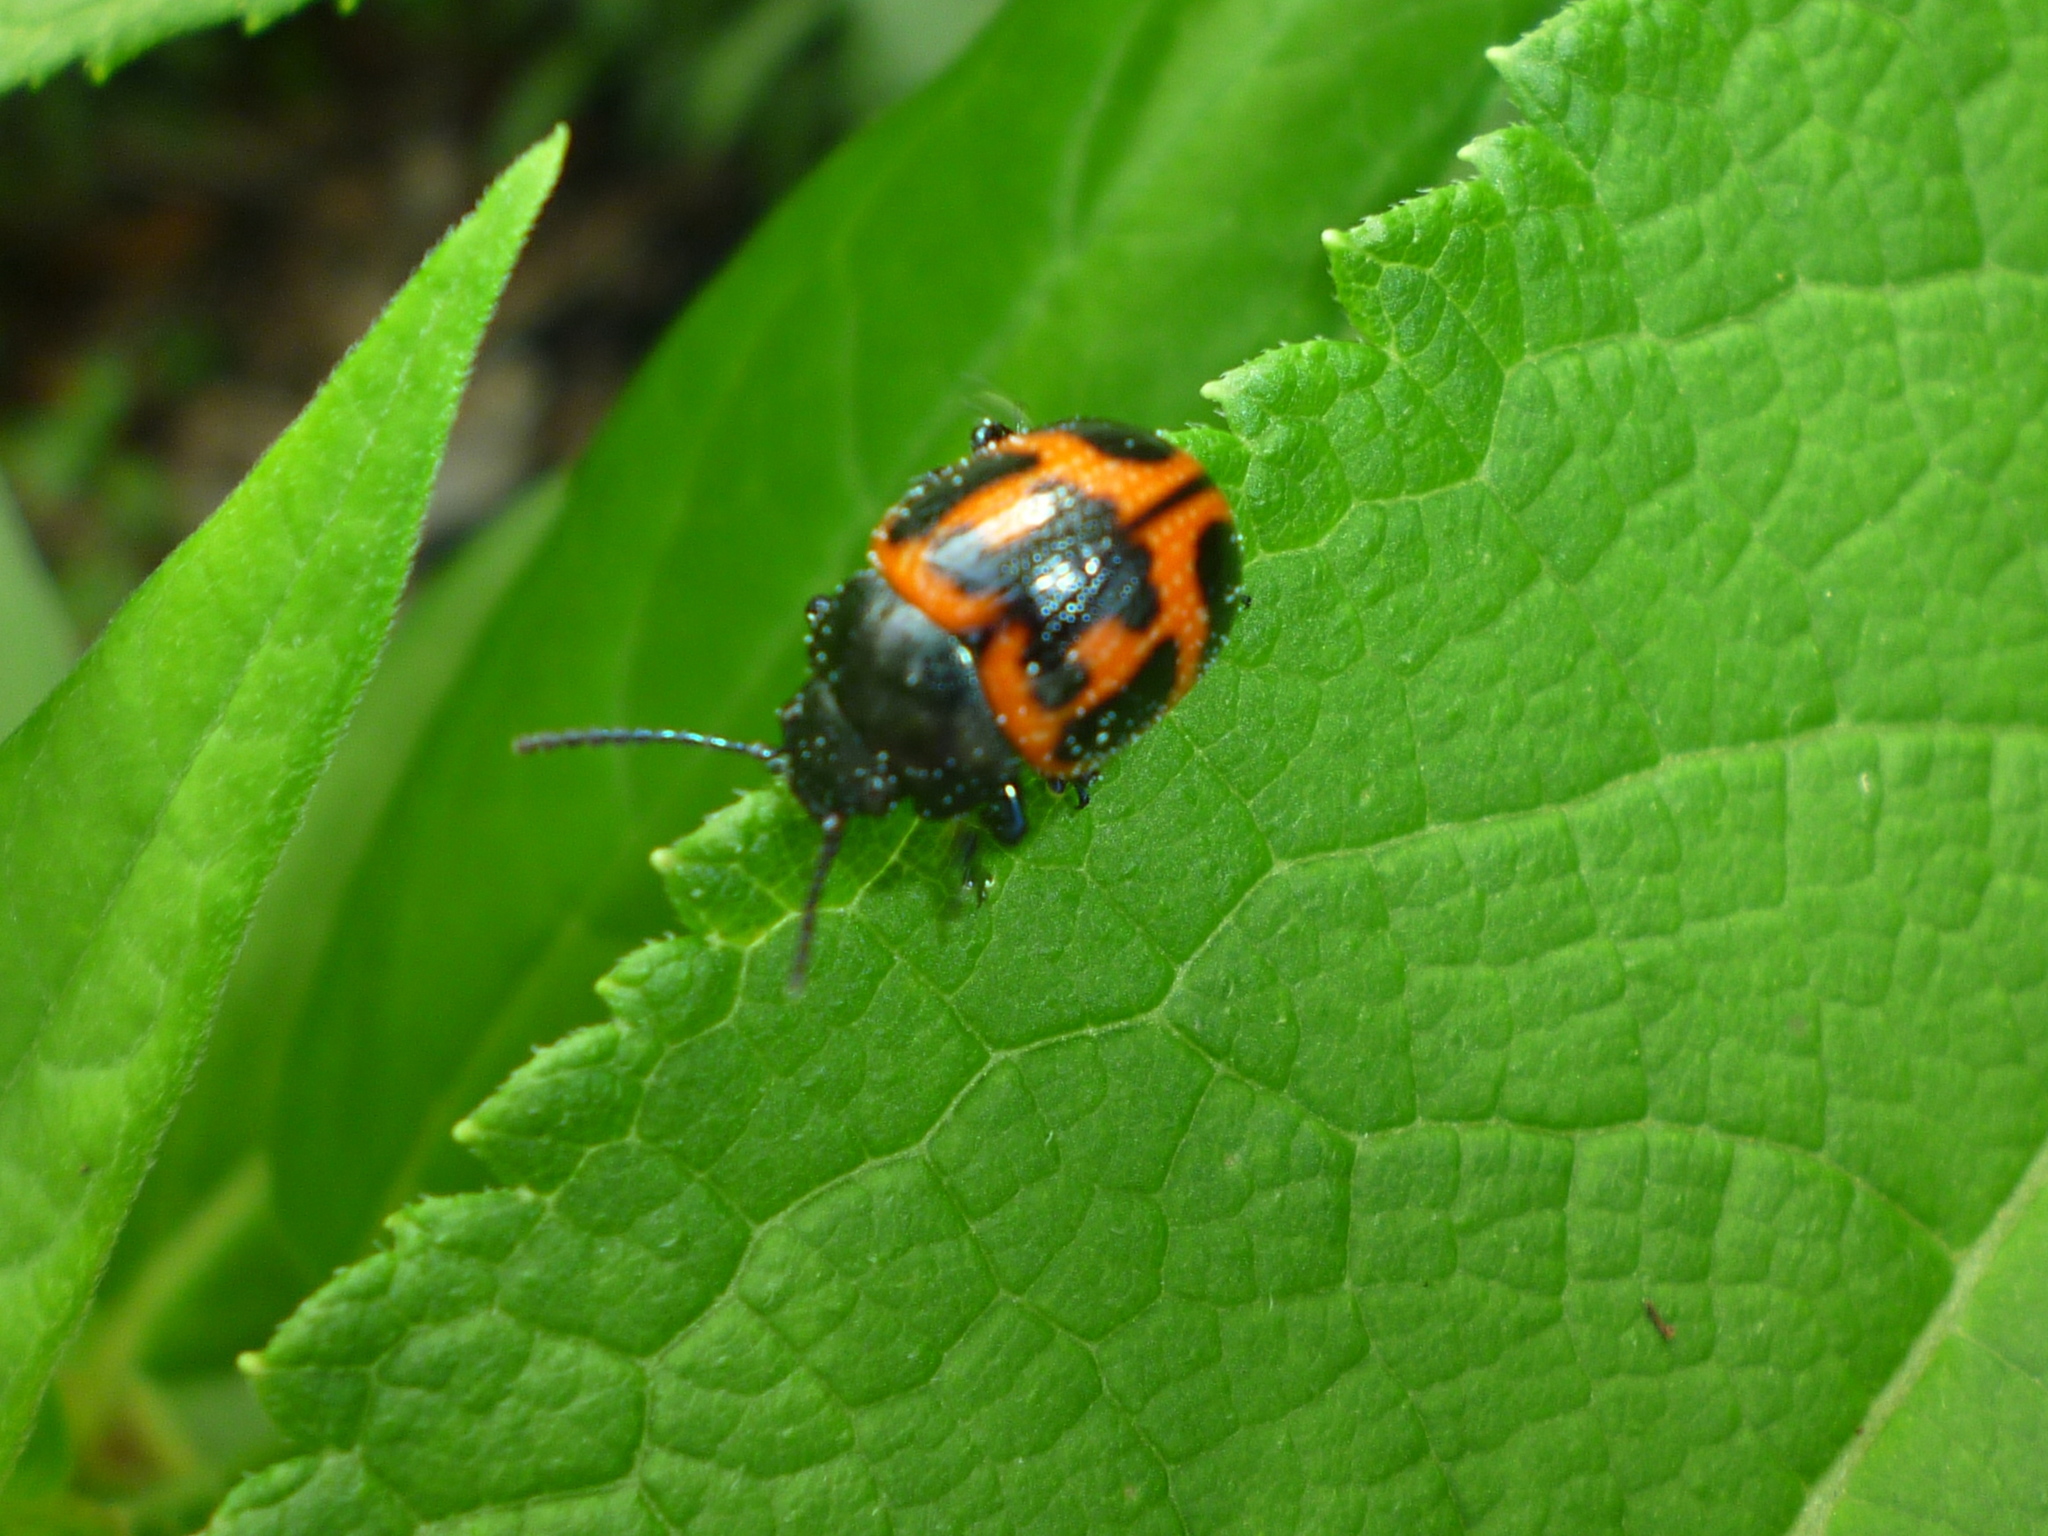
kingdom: Animalia
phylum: Arthropoda
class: Insecta
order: Coleoptera
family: Chrysomelidae
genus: Labidomera
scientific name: Labidomera clivicollis
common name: Swamp milkweed leaf beetle
